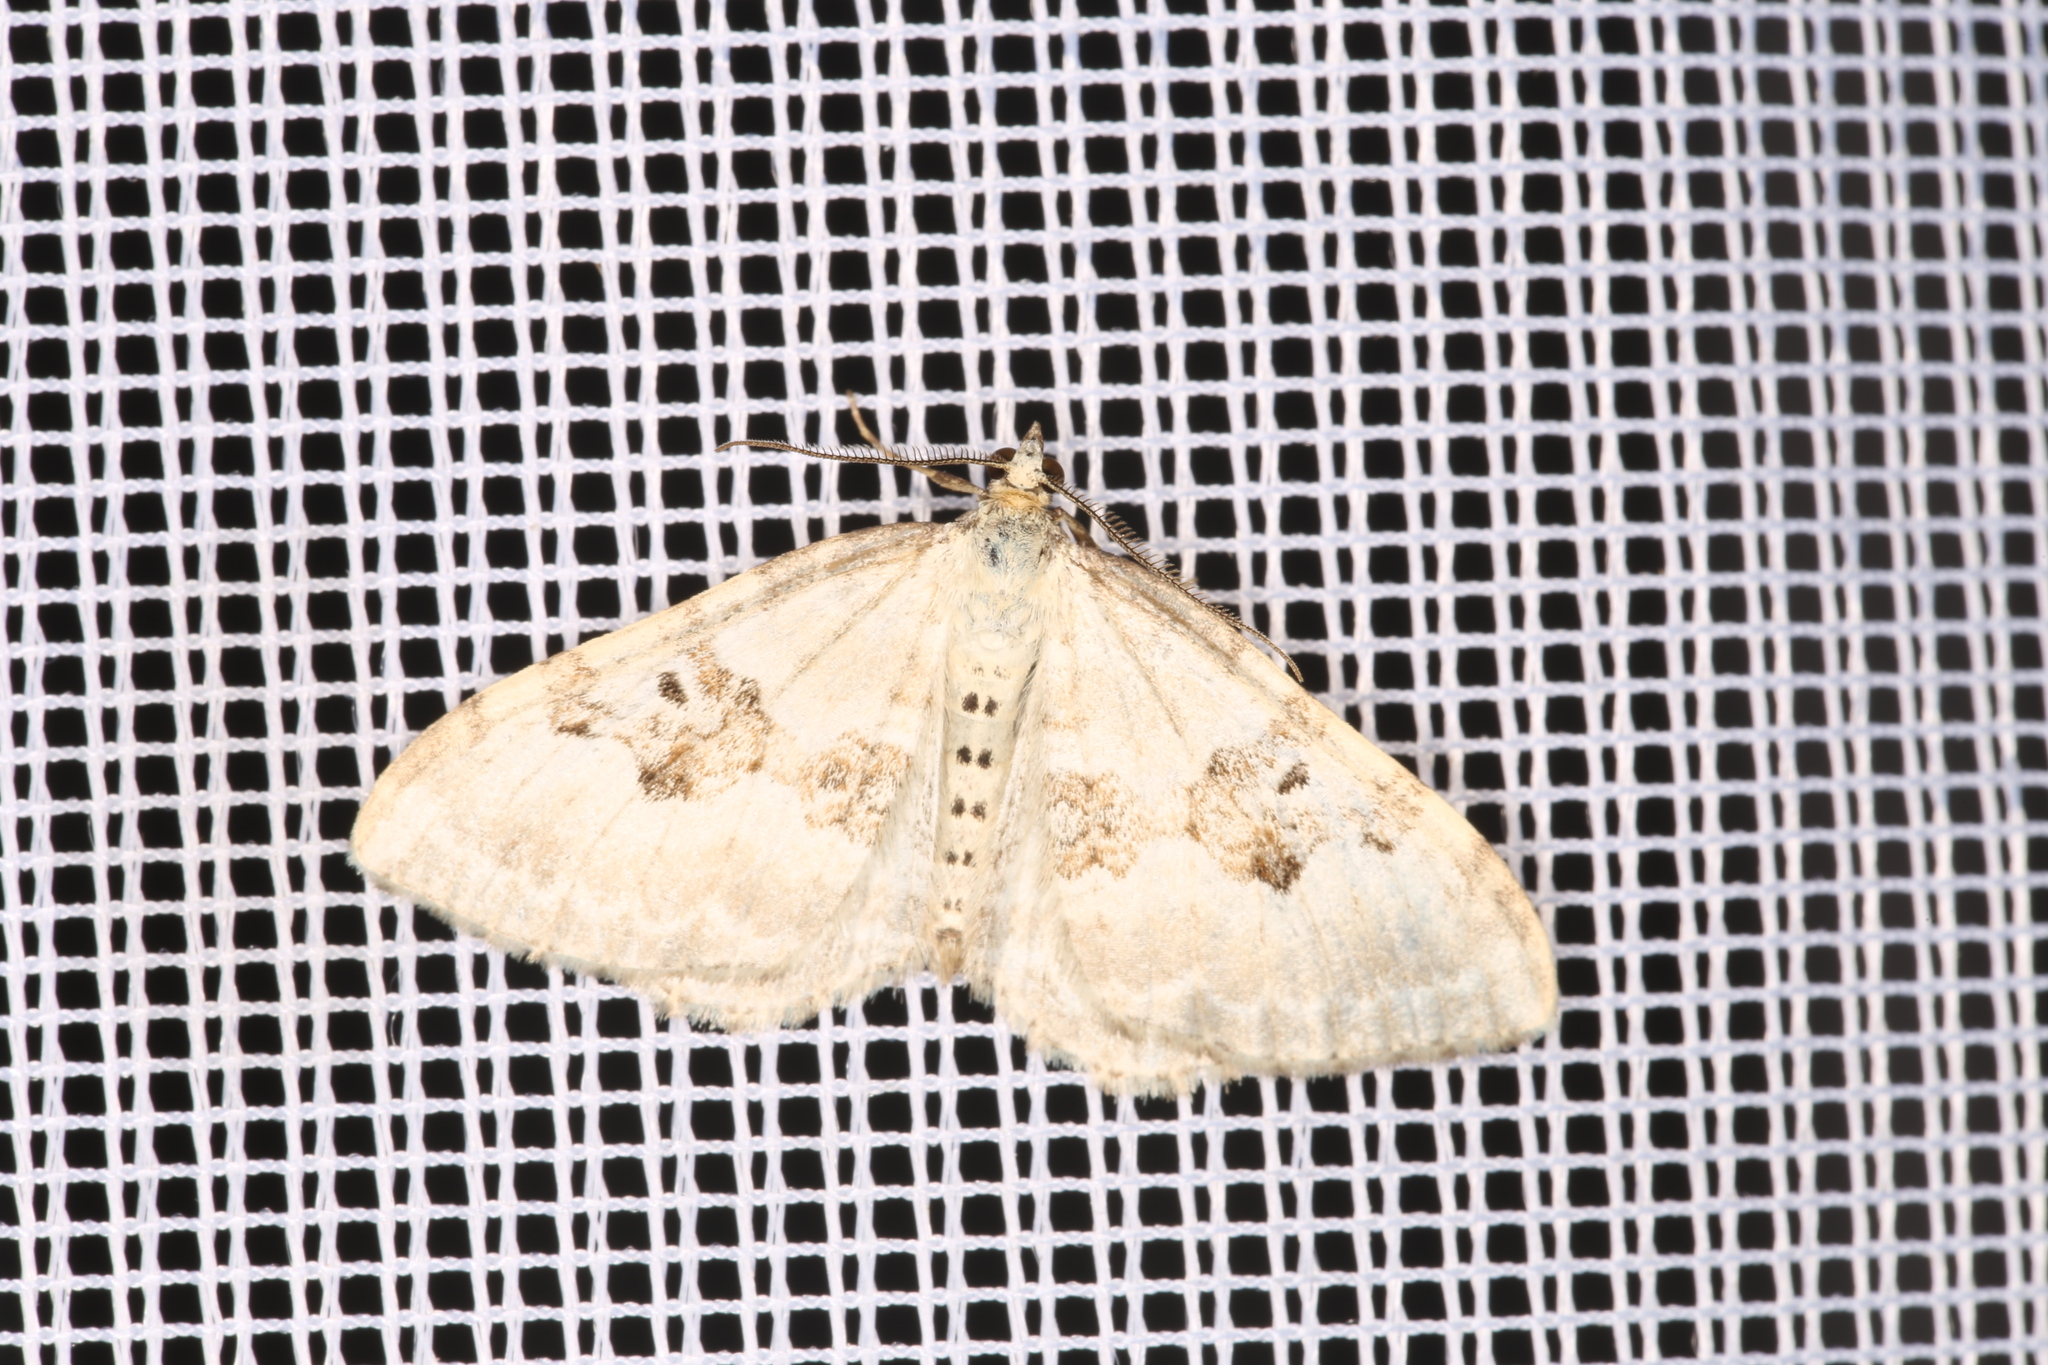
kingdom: Animalia
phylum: Arthropoda
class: Insecta
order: Lepidoptera
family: Geometridae
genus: Xanthorhoe
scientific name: Xanthorhoe montanata
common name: Silver-ground carpet
